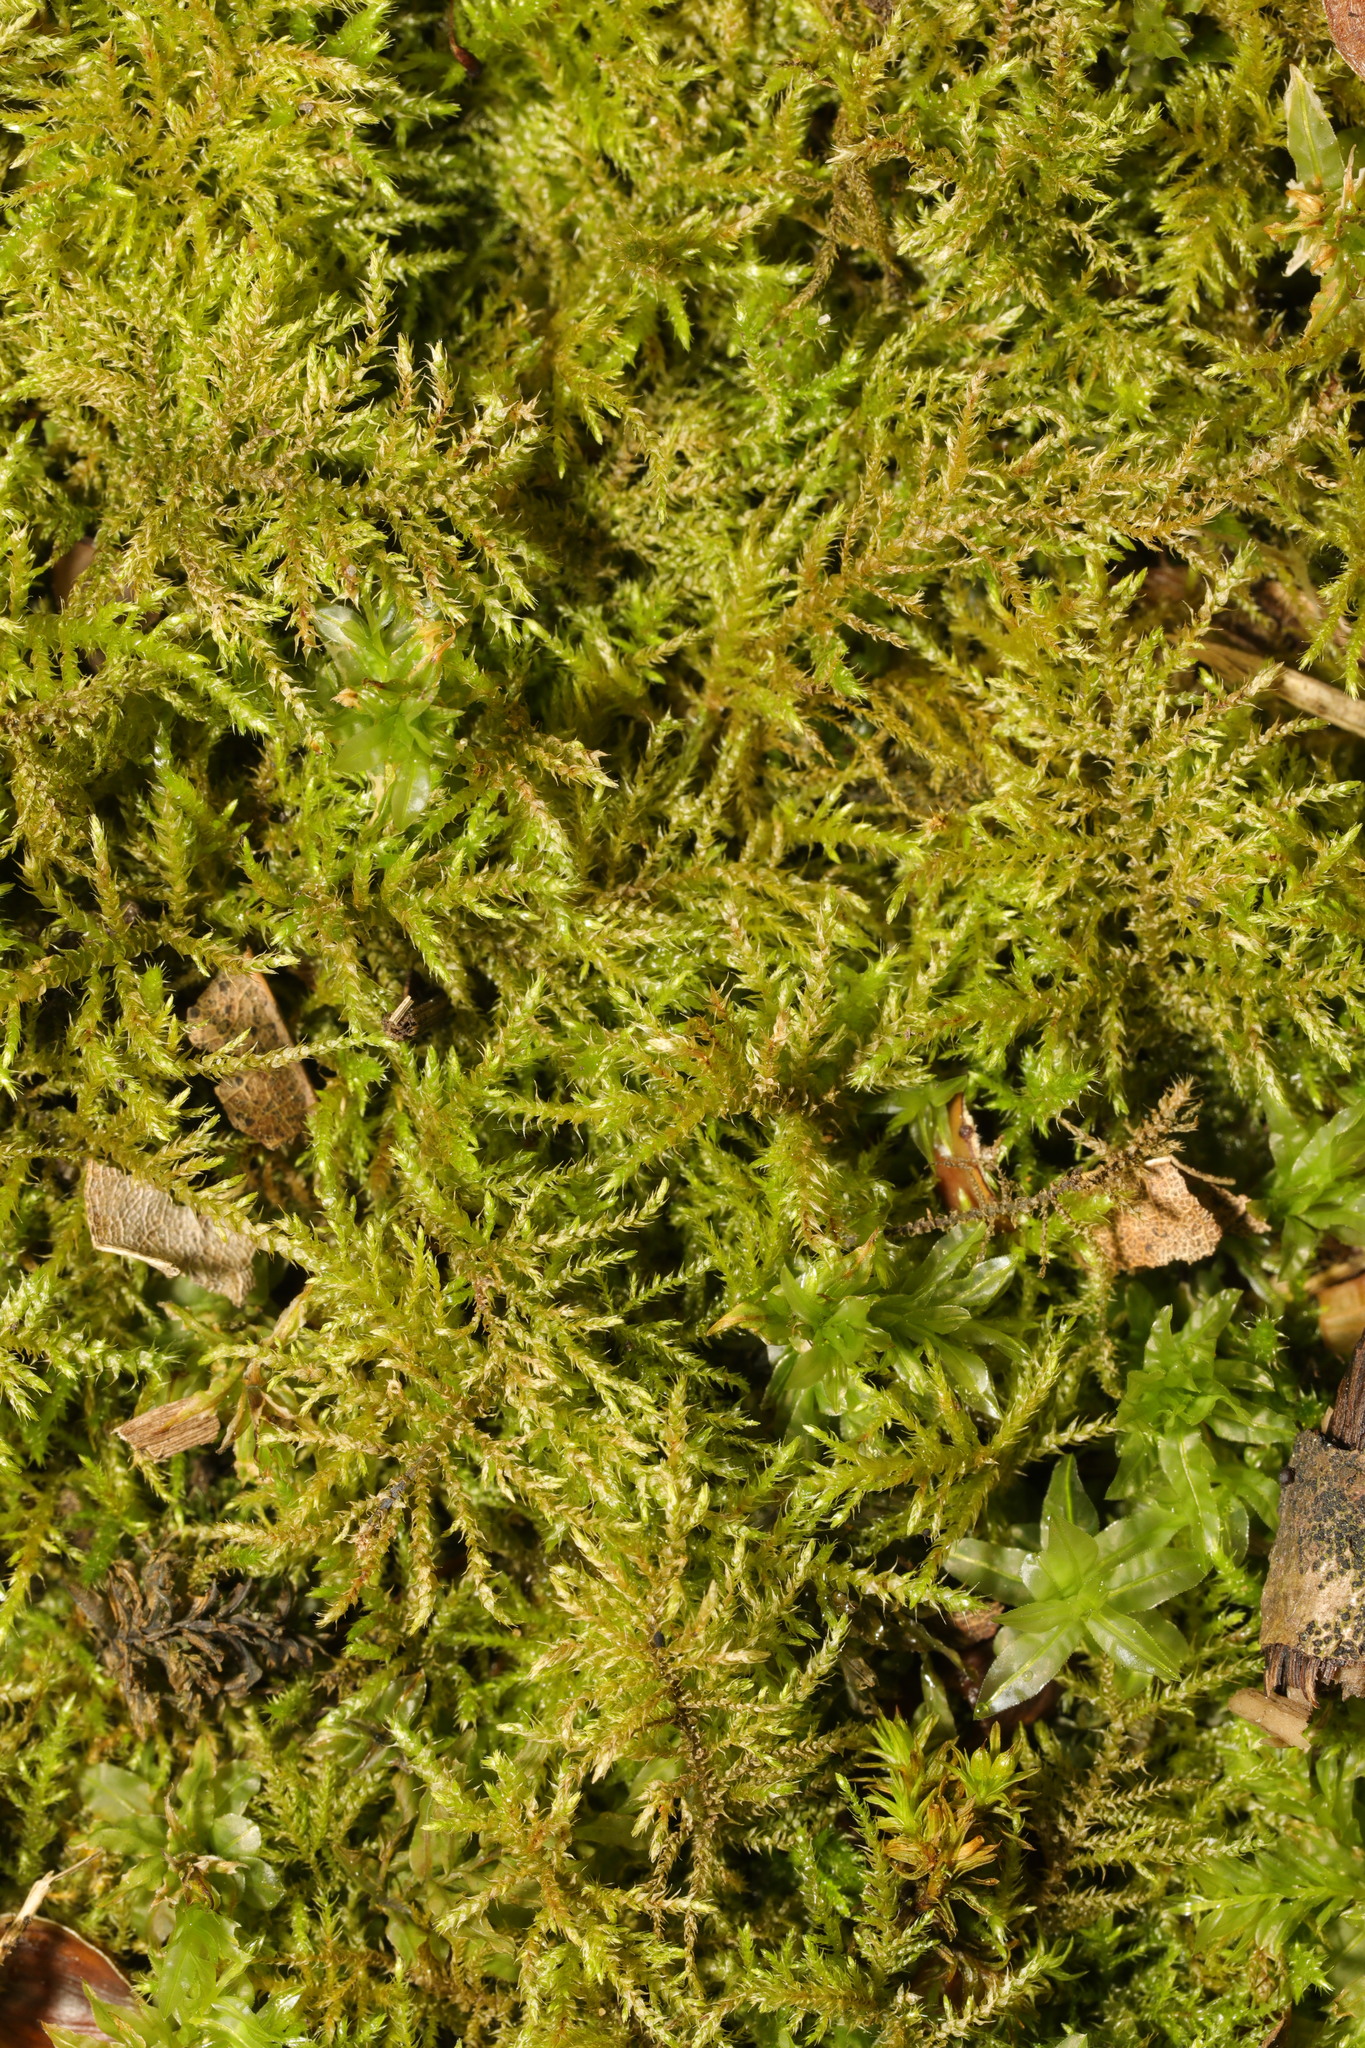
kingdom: Plantae
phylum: Bryophyta
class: Bryopsida
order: Hypnales
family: Brachytheciaceae
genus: Kindbergia
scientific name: Kindbergia praelonga
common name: Slender beaked moss
